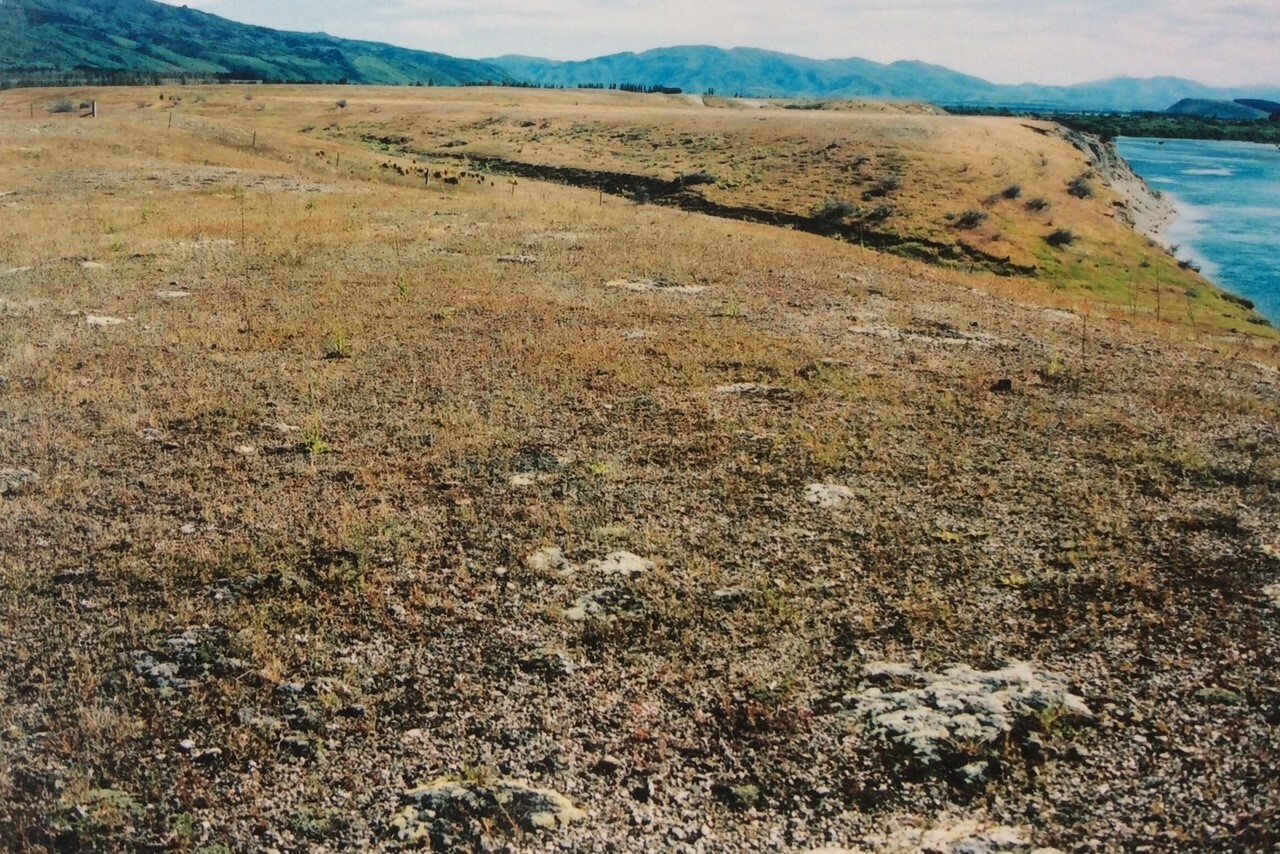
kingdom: Plantae
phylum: Tracheophyta
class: Magnoliopsida
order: Asterales
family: Asteraceae
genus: Craspedia
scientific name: Craspedia
